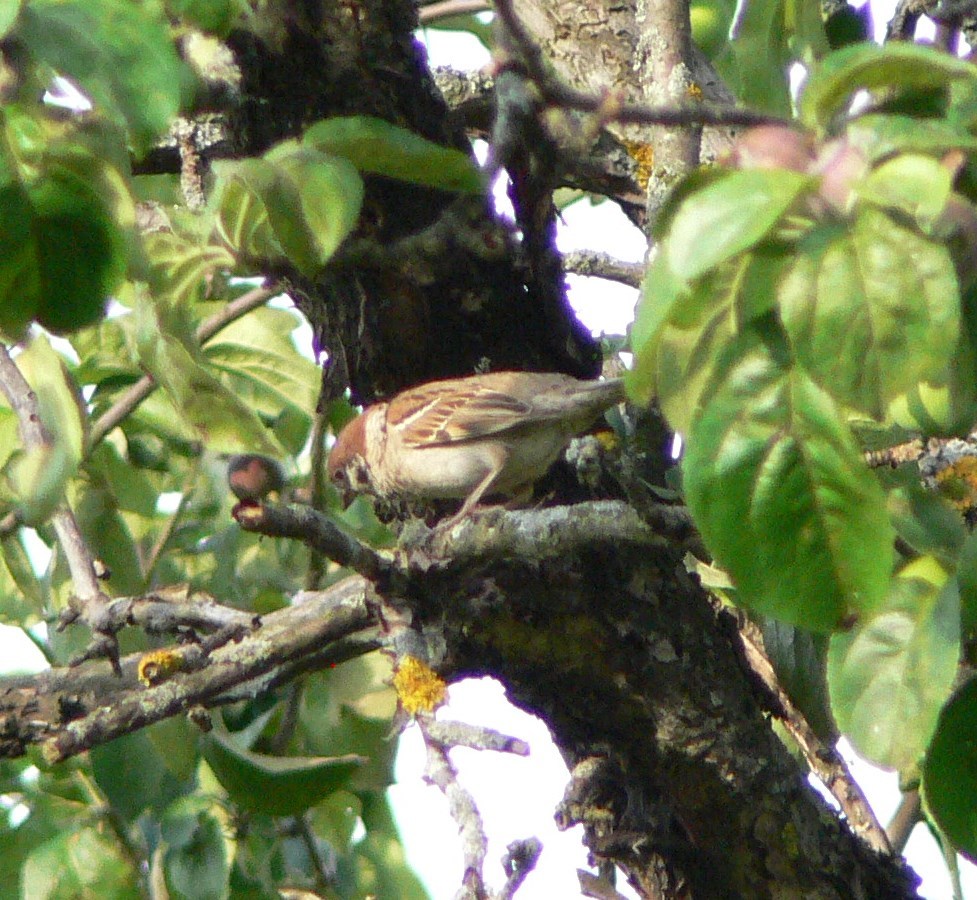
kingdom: Animalia
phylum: Chordata
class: Aves
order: Passeriformes
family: Passeridae
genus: Passer
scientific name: Passer montanus
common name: Eurasian tree sparrow
